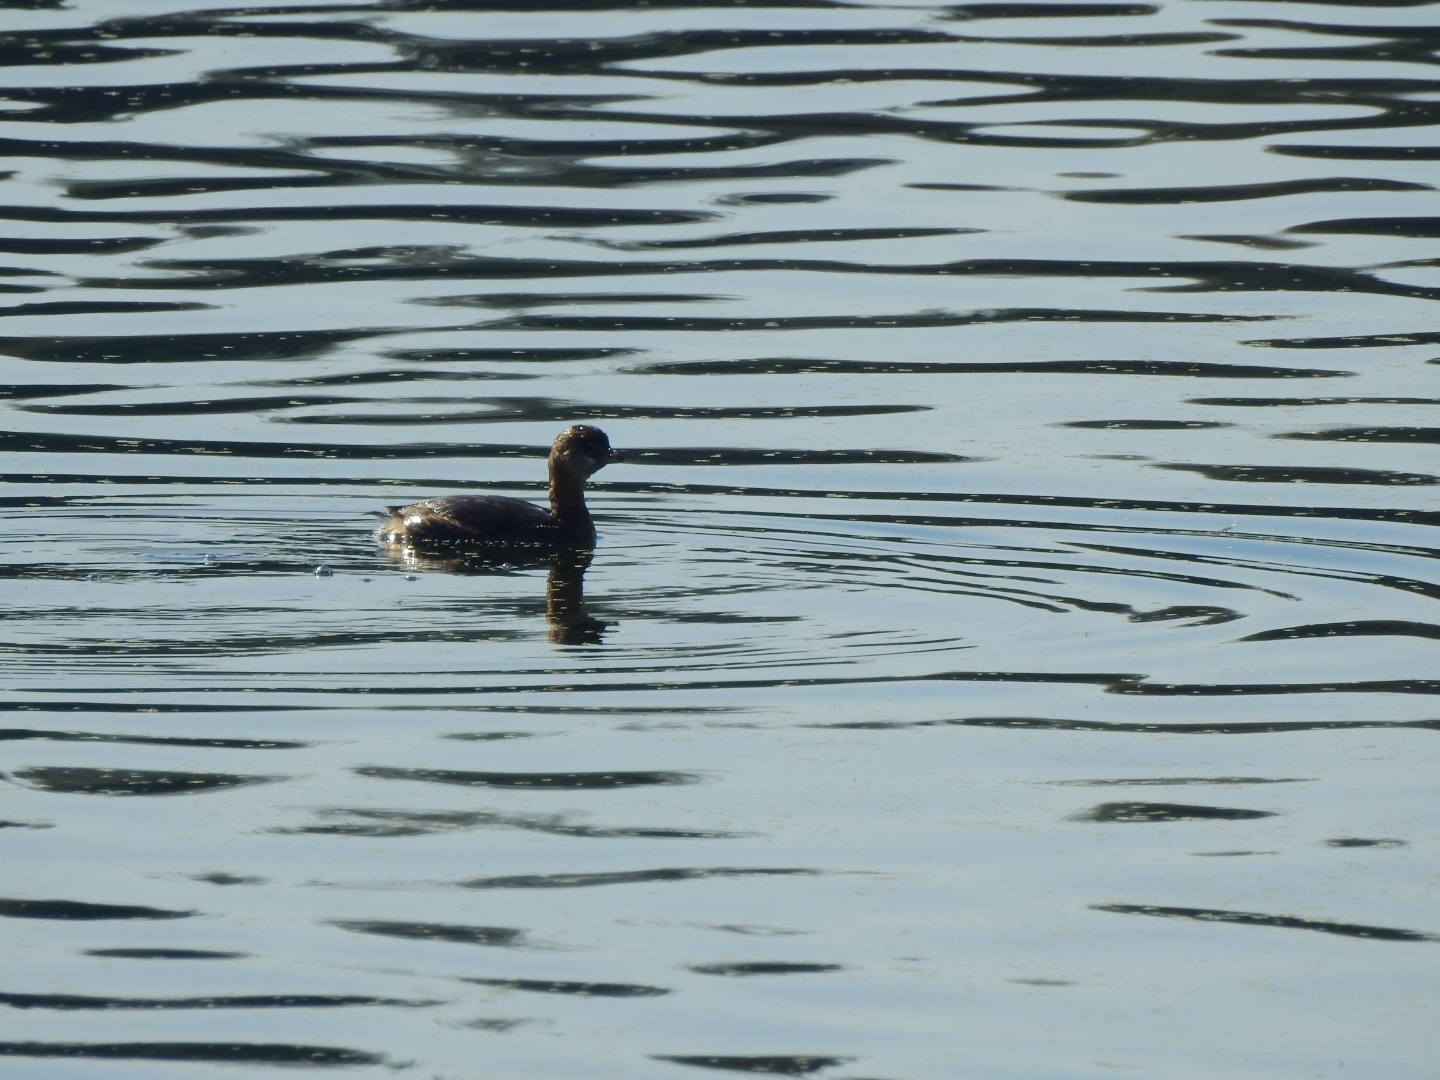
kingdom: Animalia
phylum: Chordata
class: Aves
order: Podicipediformes
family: Podicipedidae
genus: Podilymbus
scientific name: Podilymbus podiceps
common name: Pied-billed grebe
